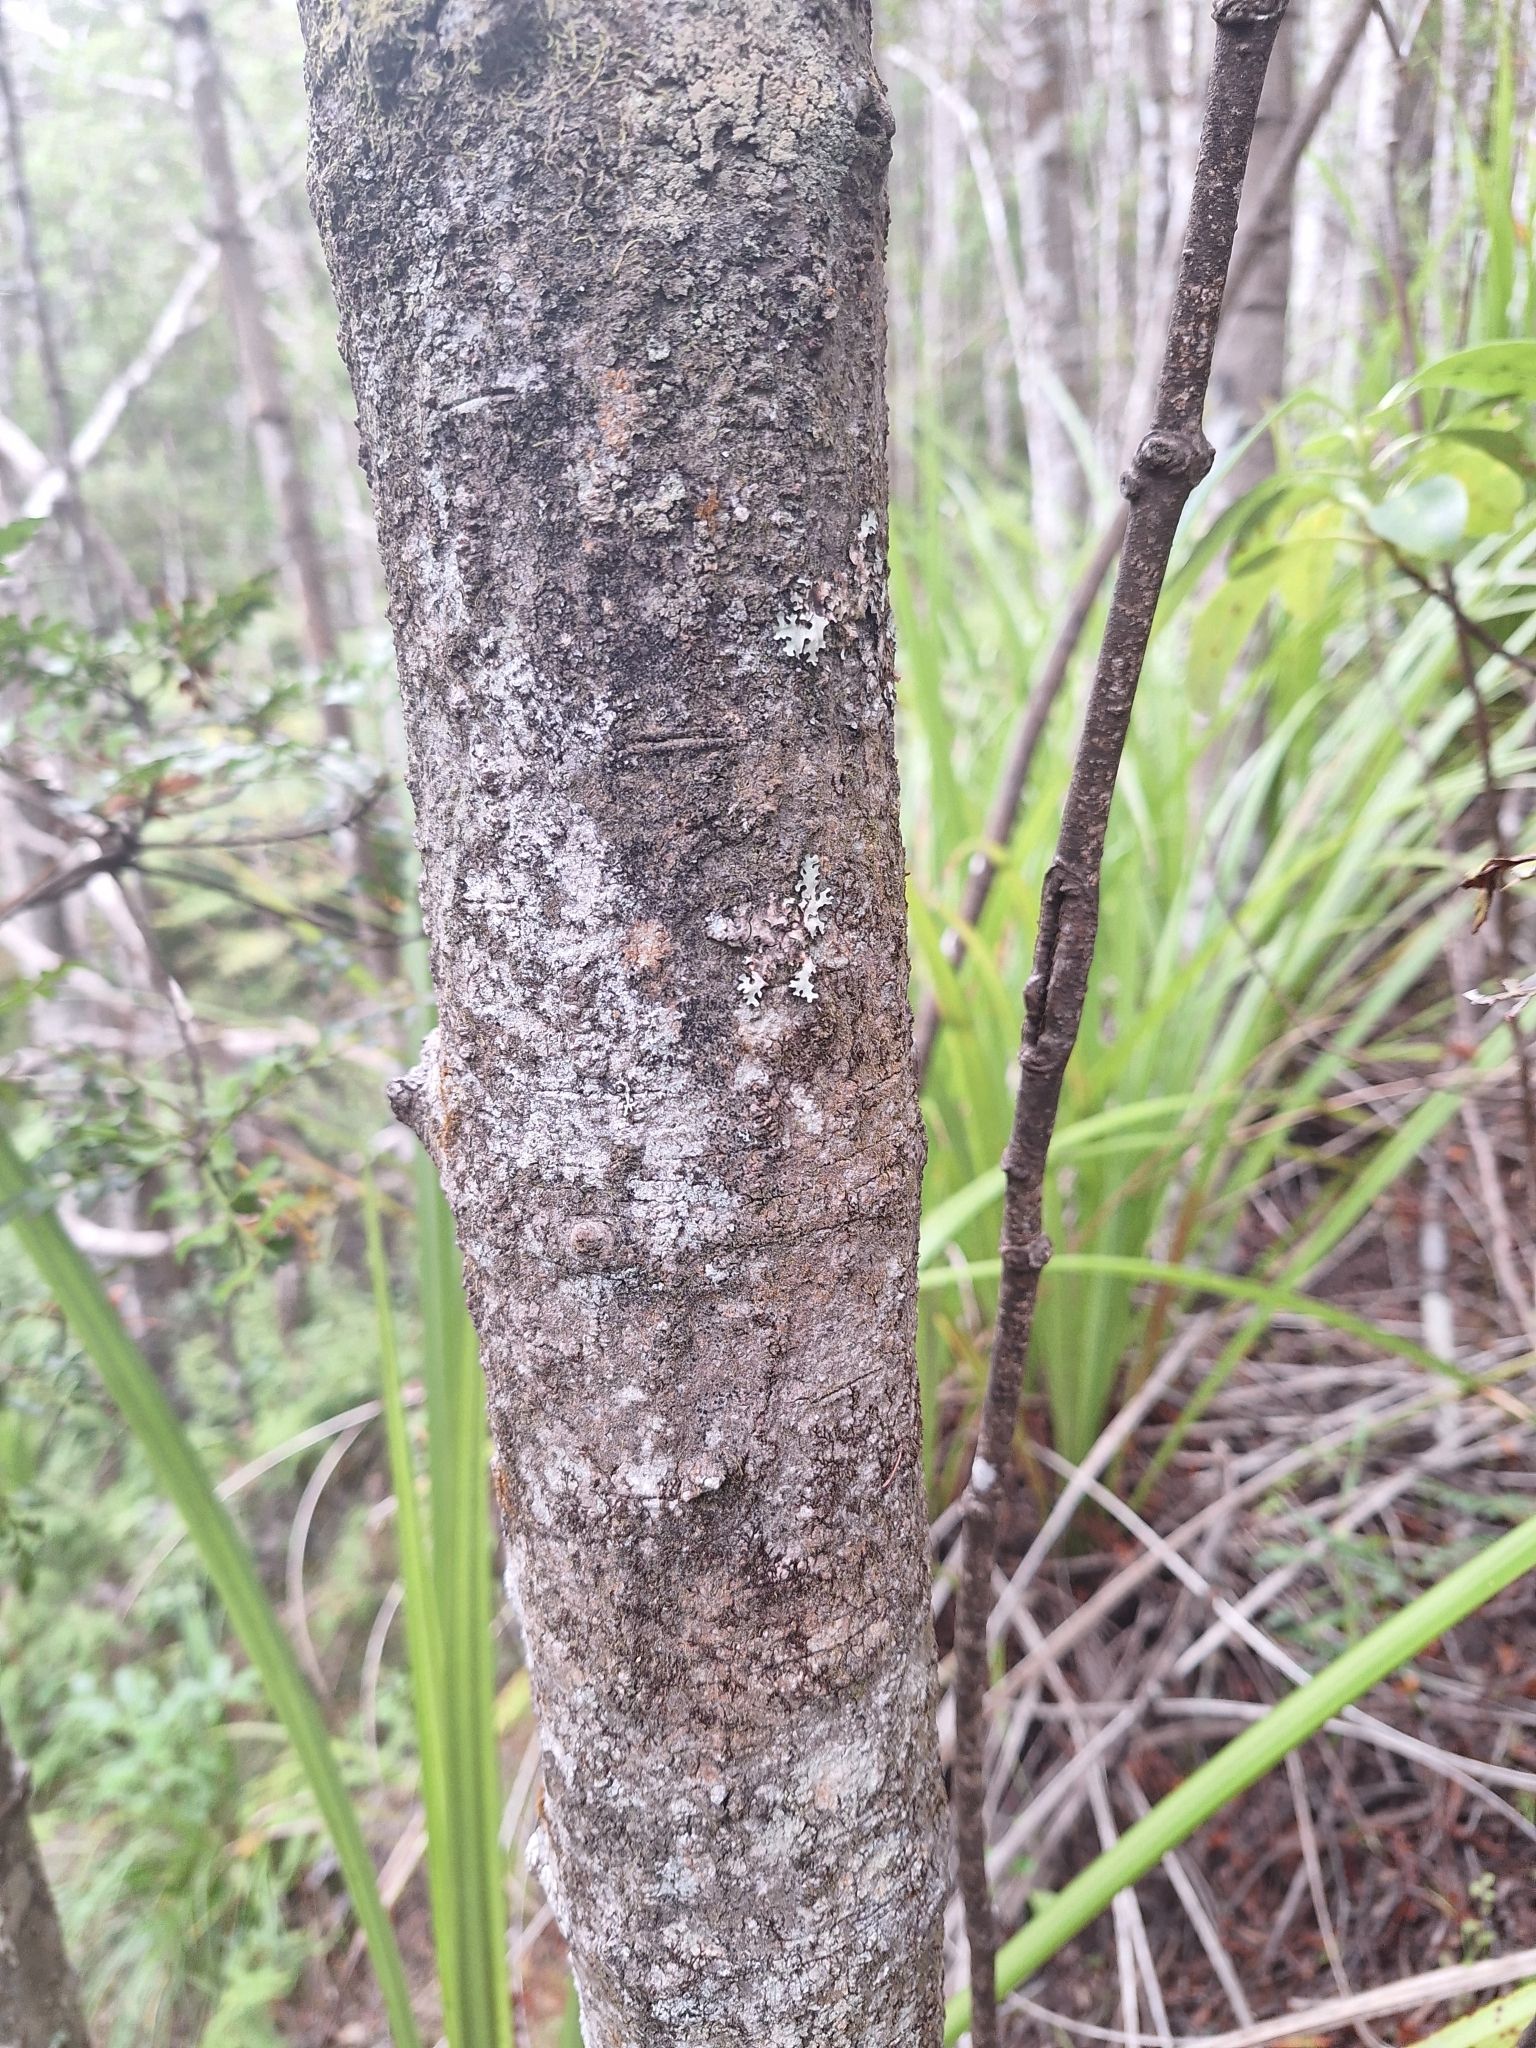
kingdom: Plantae
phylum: Tracheophyta
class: Pinopsida
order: Pinales
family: Phyllocladaceae
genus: Phyllocladus
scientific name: Phyllocladus toatoa
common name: Celery-top pine
